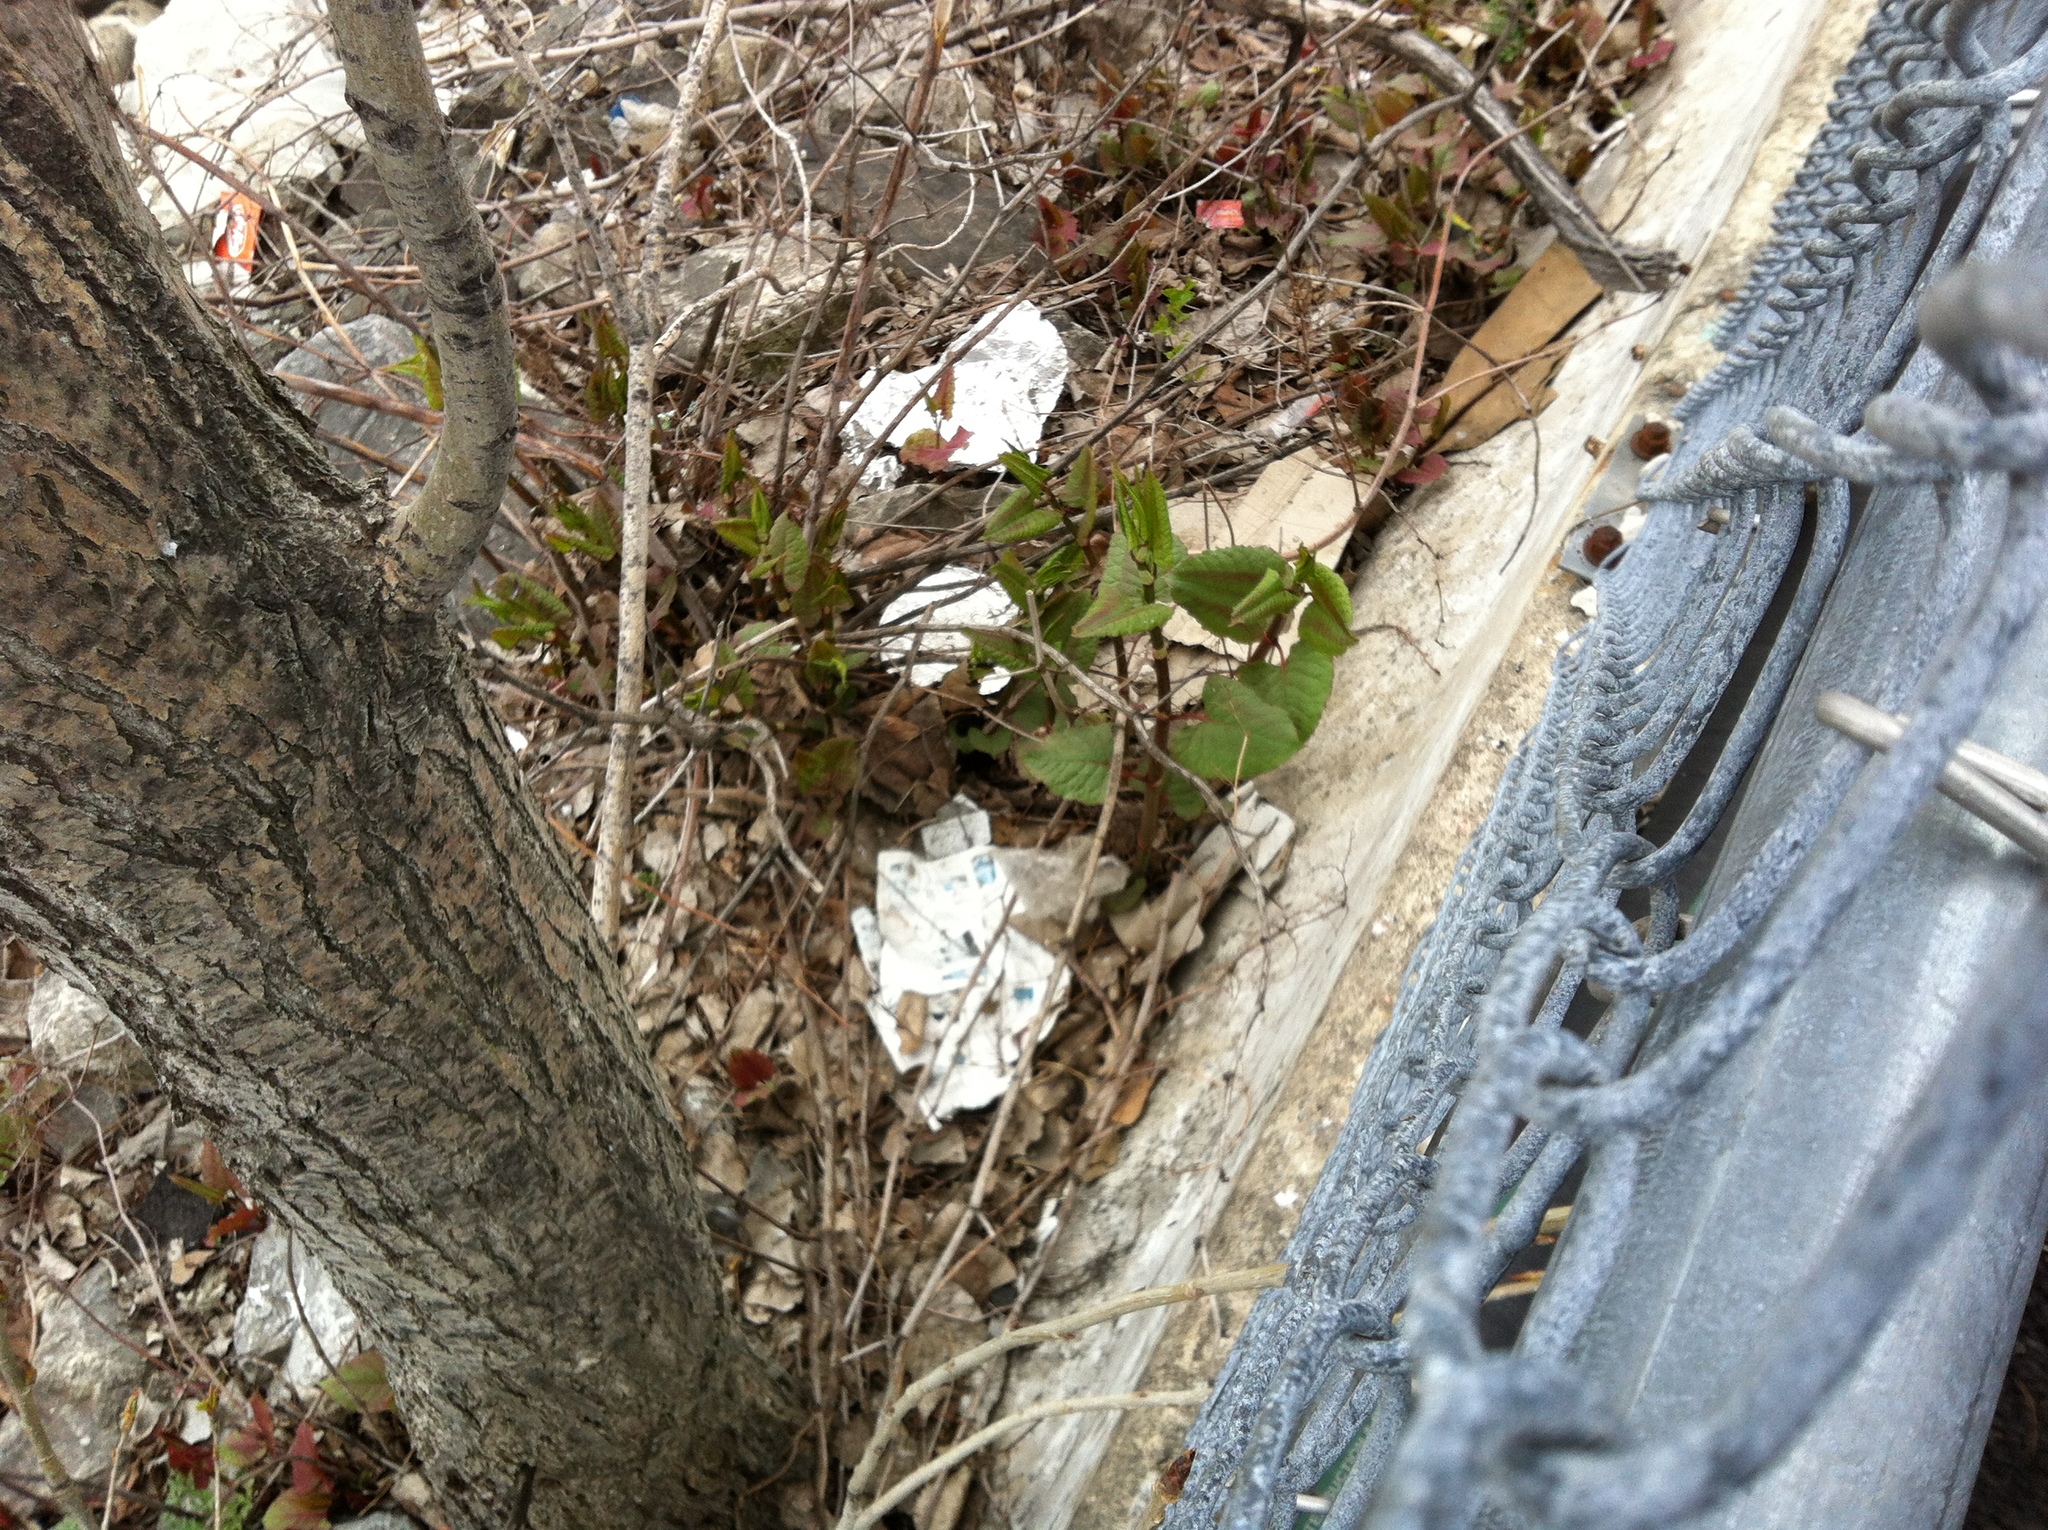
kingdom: Plantae
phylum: Tracheophyta
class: Magnoliopsida
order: Caryophyllales
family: Polygonaceae
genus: Reynoutria
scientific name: Reynoutria japonica
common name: Japanese knotweed
